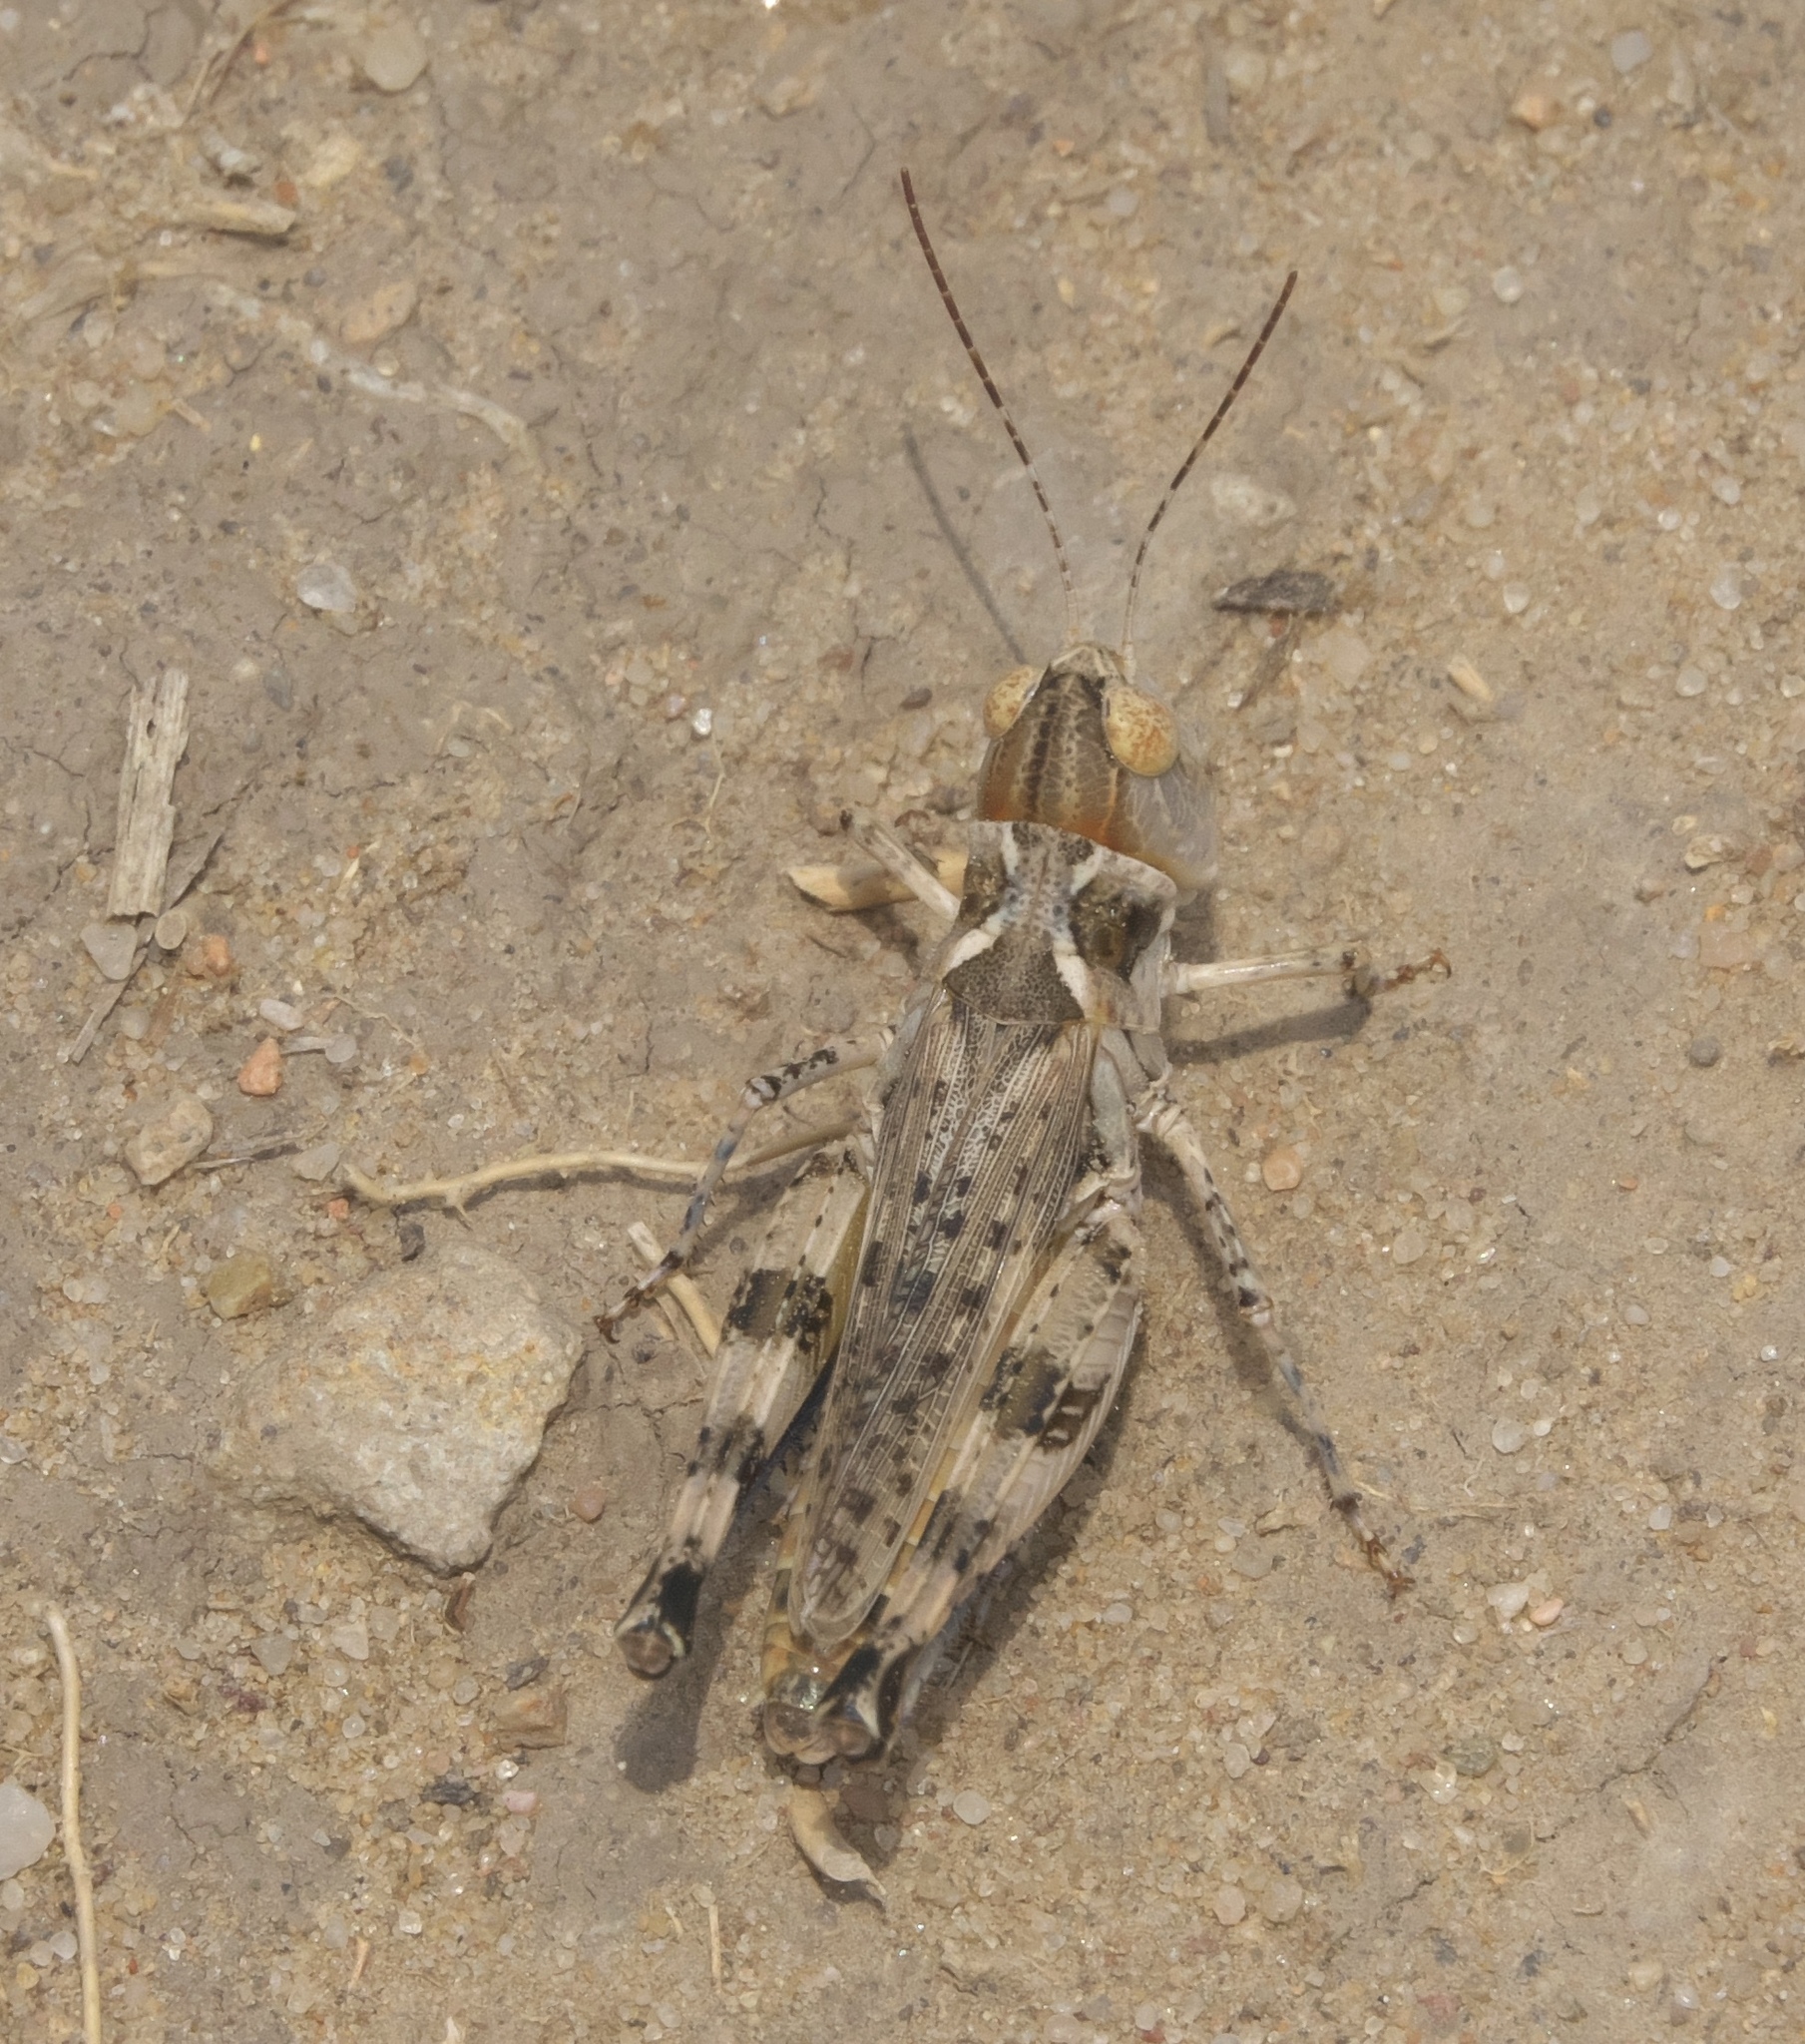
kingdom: Animalia
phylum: Arthropoda
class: Insecta
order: Orthoptera
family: Acrididae
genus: Aulocara
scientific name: Aulocara elliotti
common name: Bigheaded grasshopper
